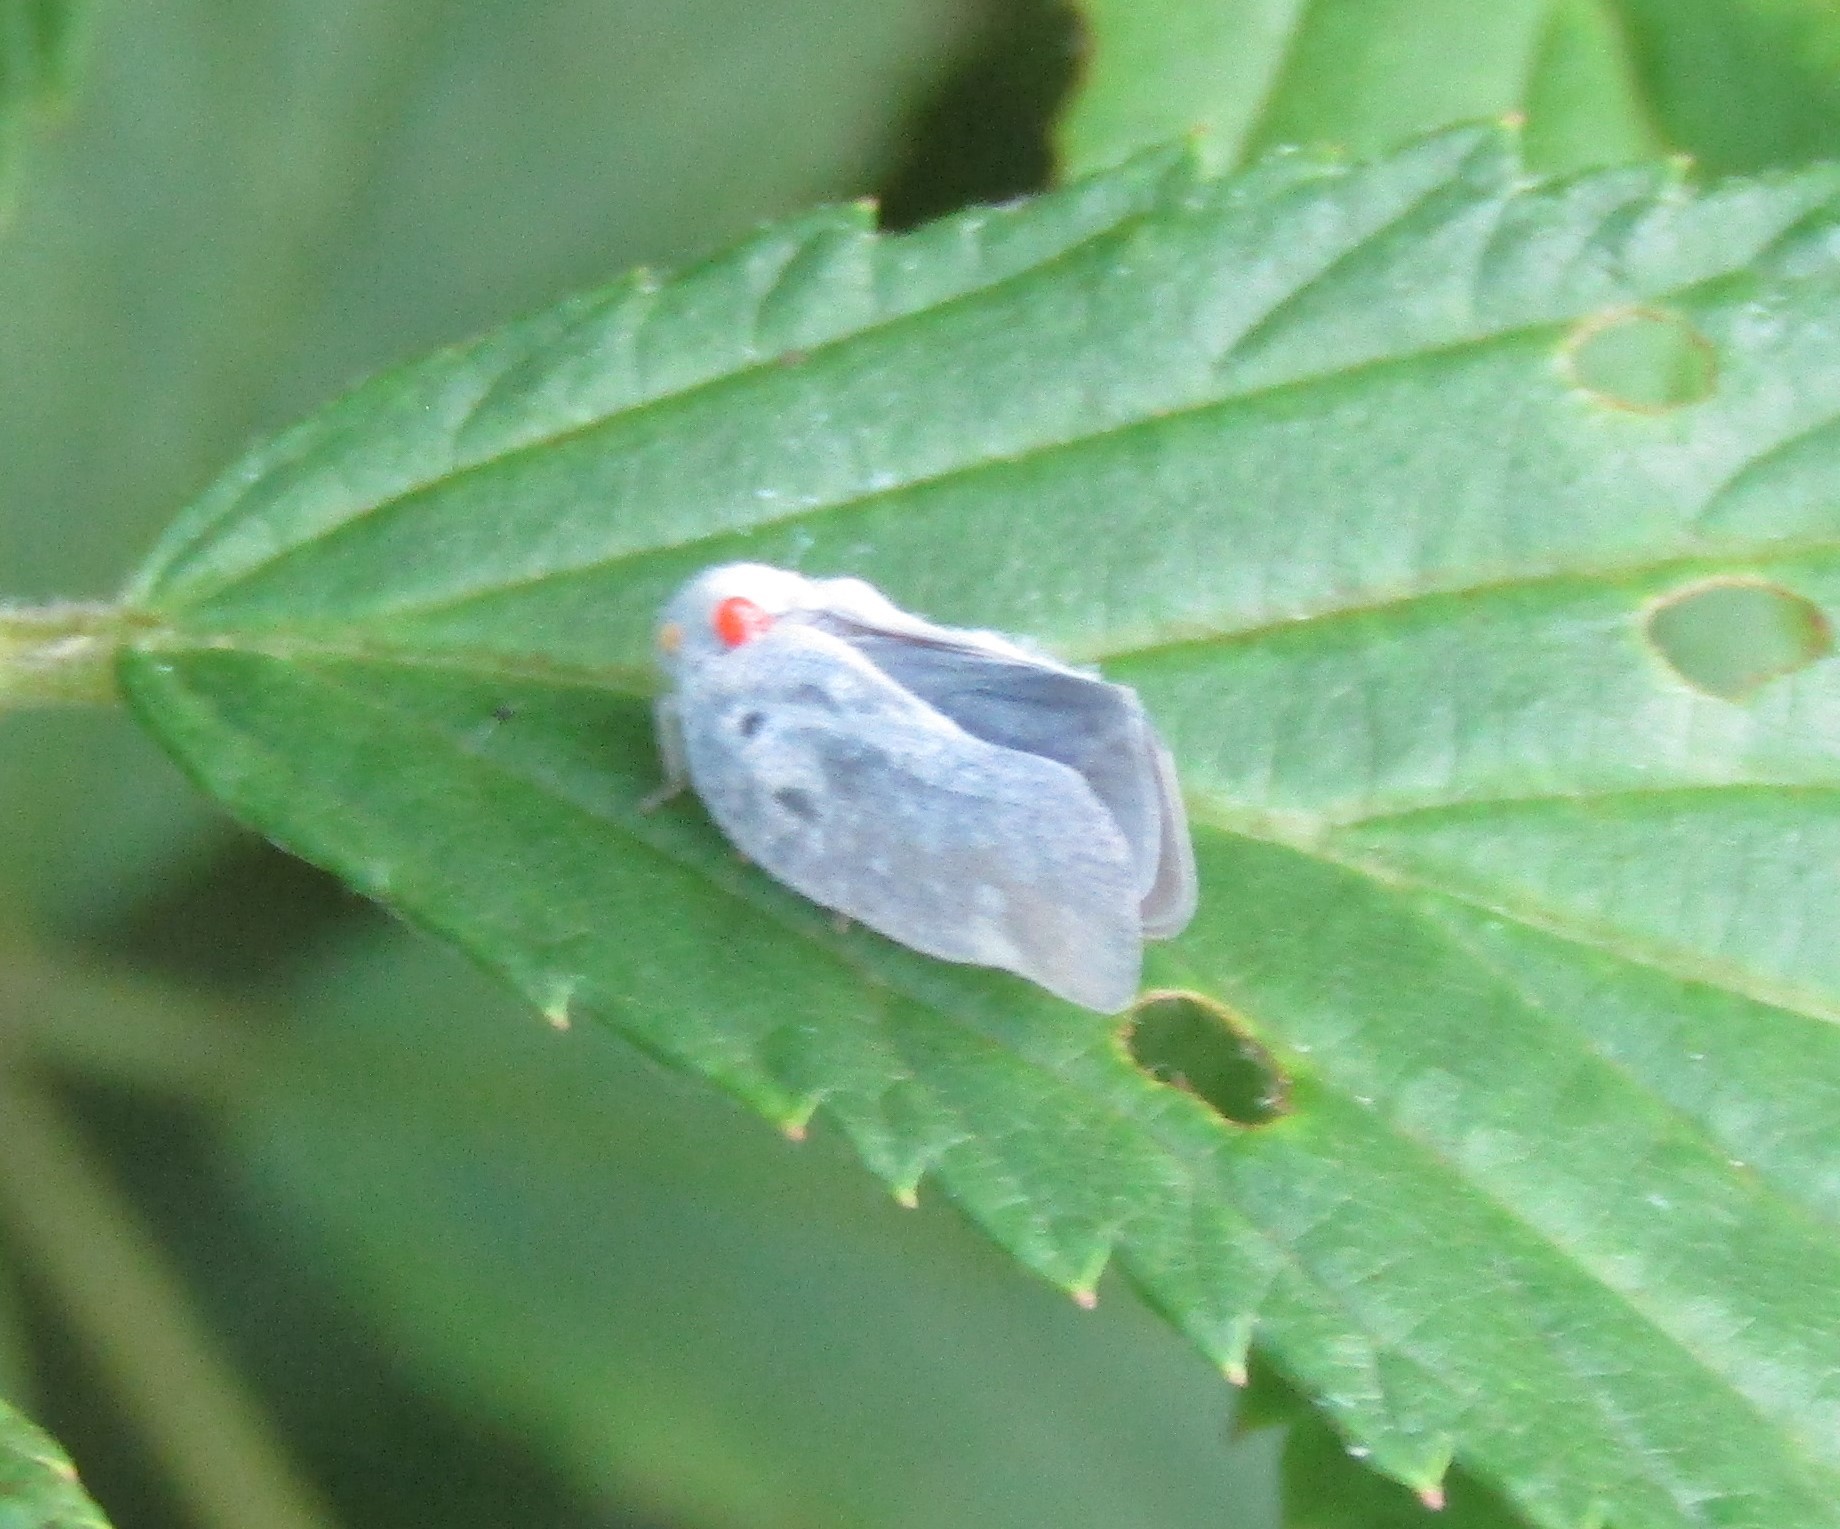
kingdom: Animalia
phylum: Arthropoda
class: Insecta
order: Hemiptera
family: Flatidae
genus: Metcalfa
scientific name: Metcalfa pruinosa
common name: Citrus flatid planthopper
